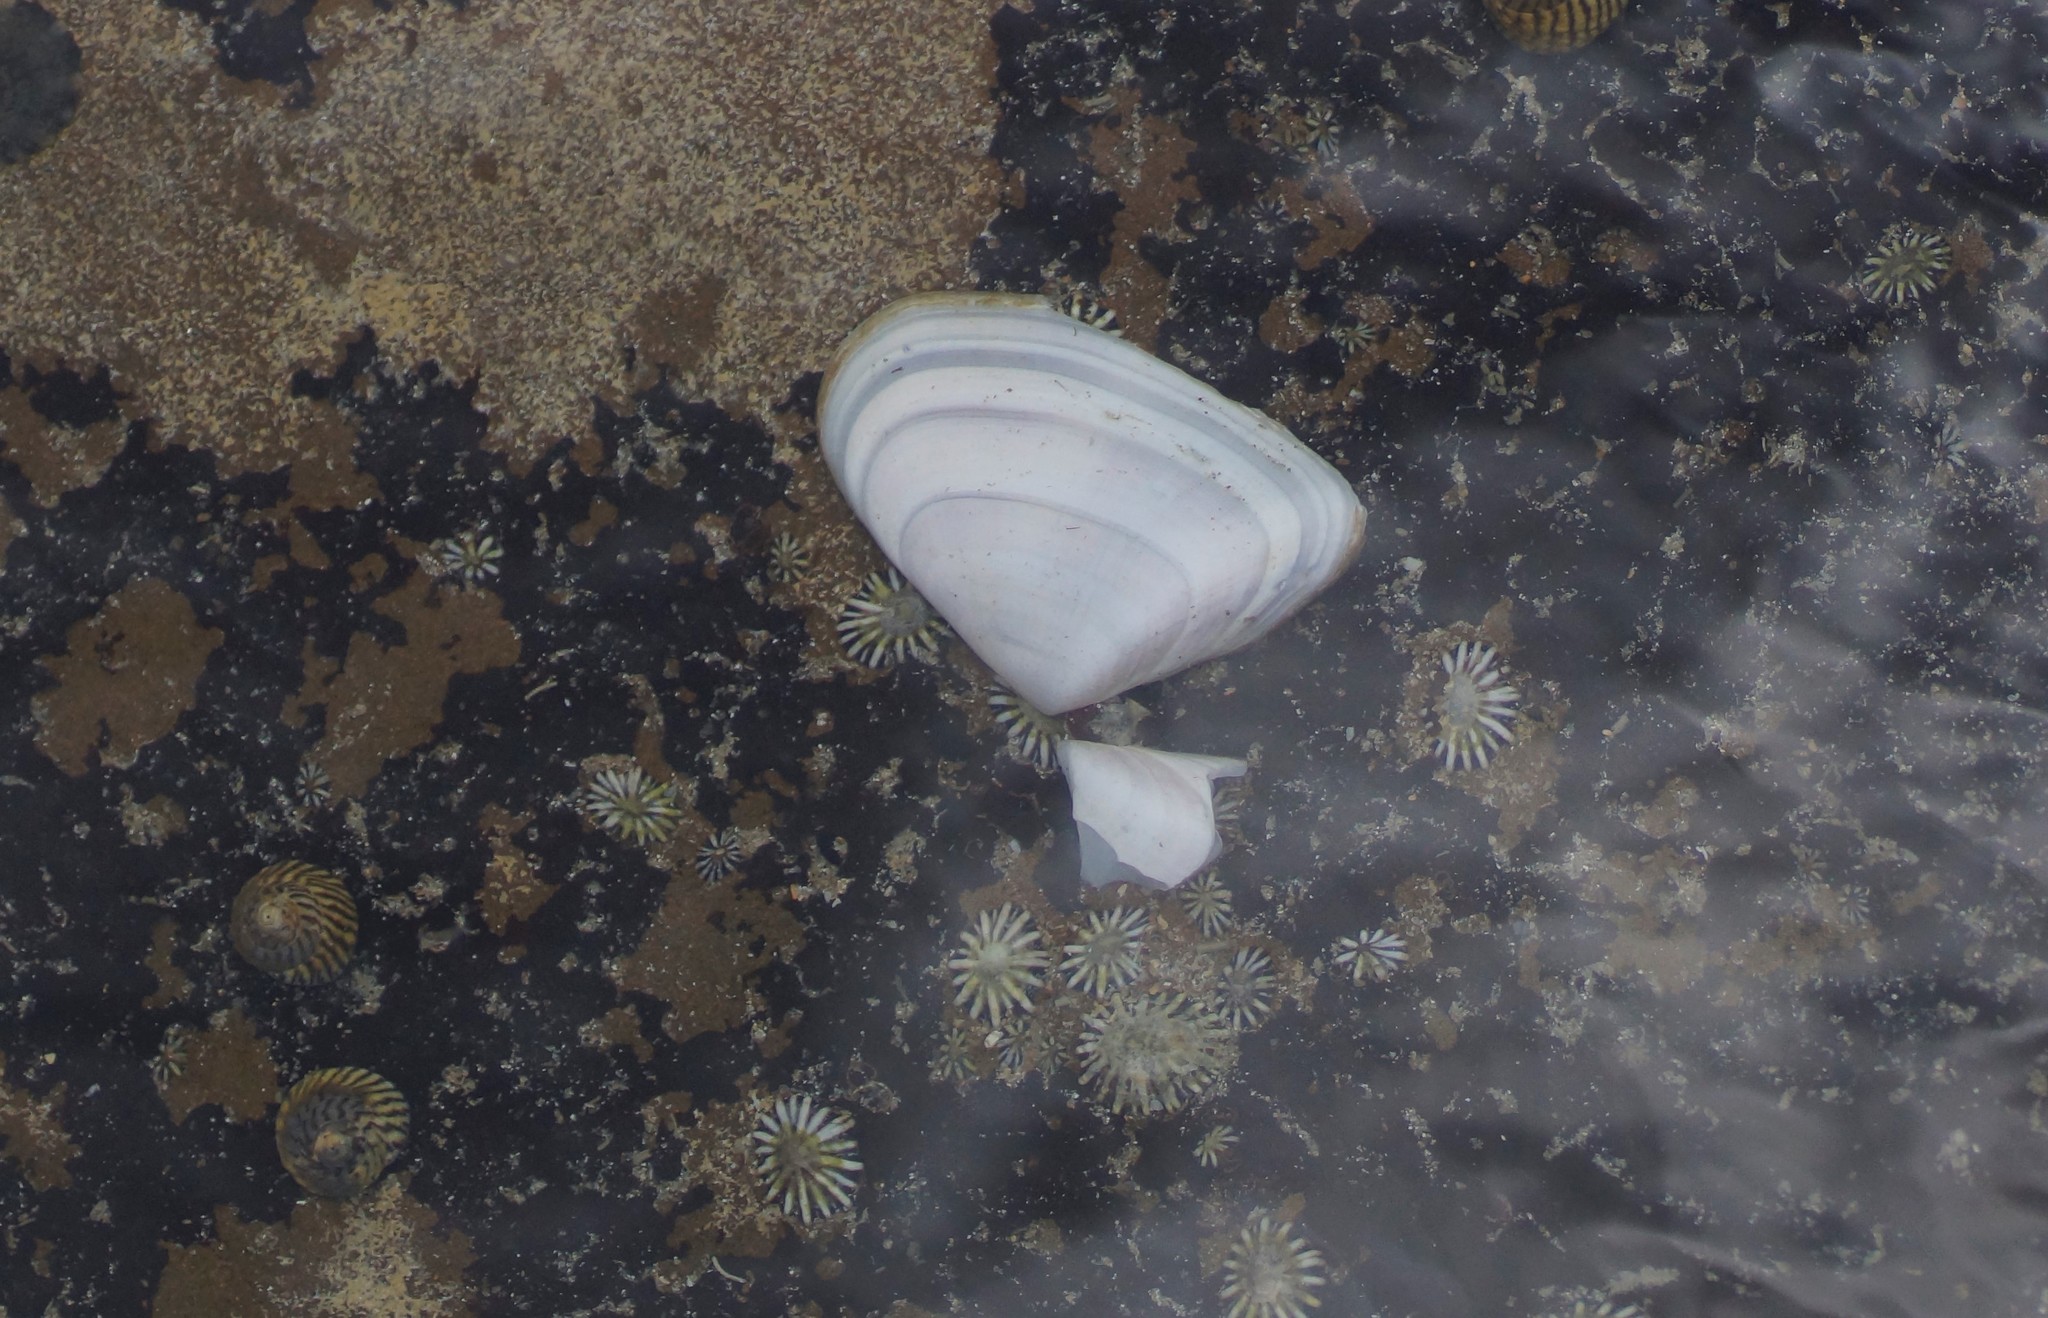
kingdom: Animalia
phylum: Mollusca
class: Bivalvia
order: Cardiida
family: Donacidae
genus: Latona
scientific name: Latona deltoides
